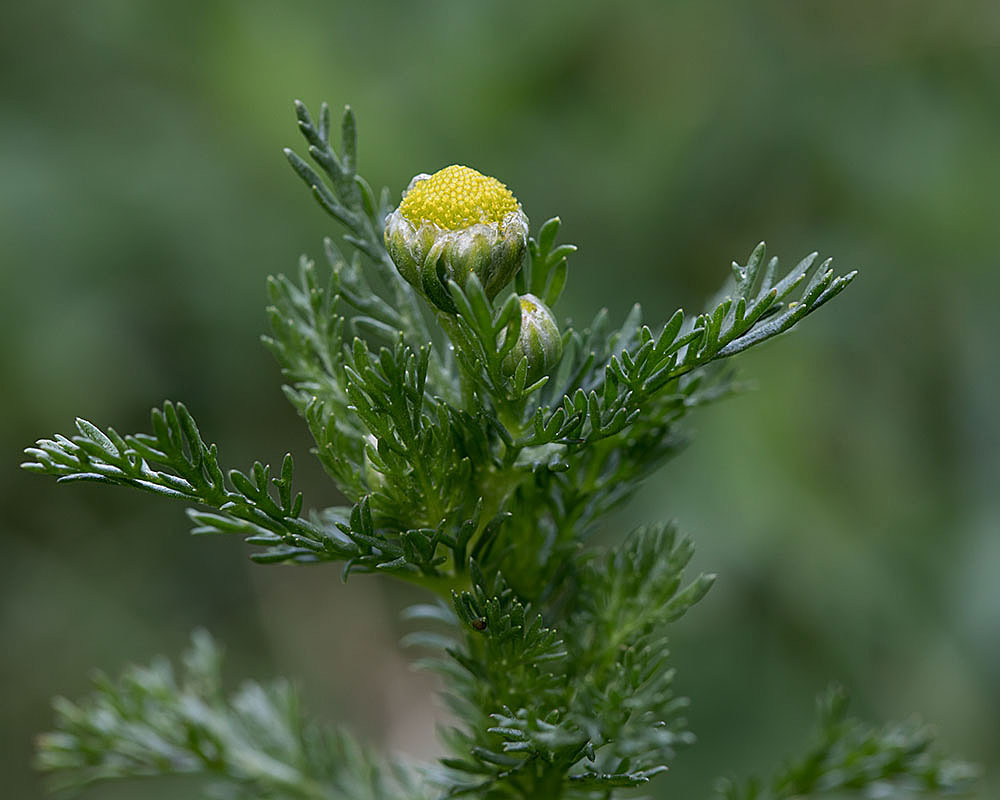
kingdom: Plantae
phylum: Tracheophyta
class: Magnoliopsida
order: Asterales
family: Asteraceae
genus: Matricaria
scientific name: Matricaria discoidea
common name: Disc mayweed
